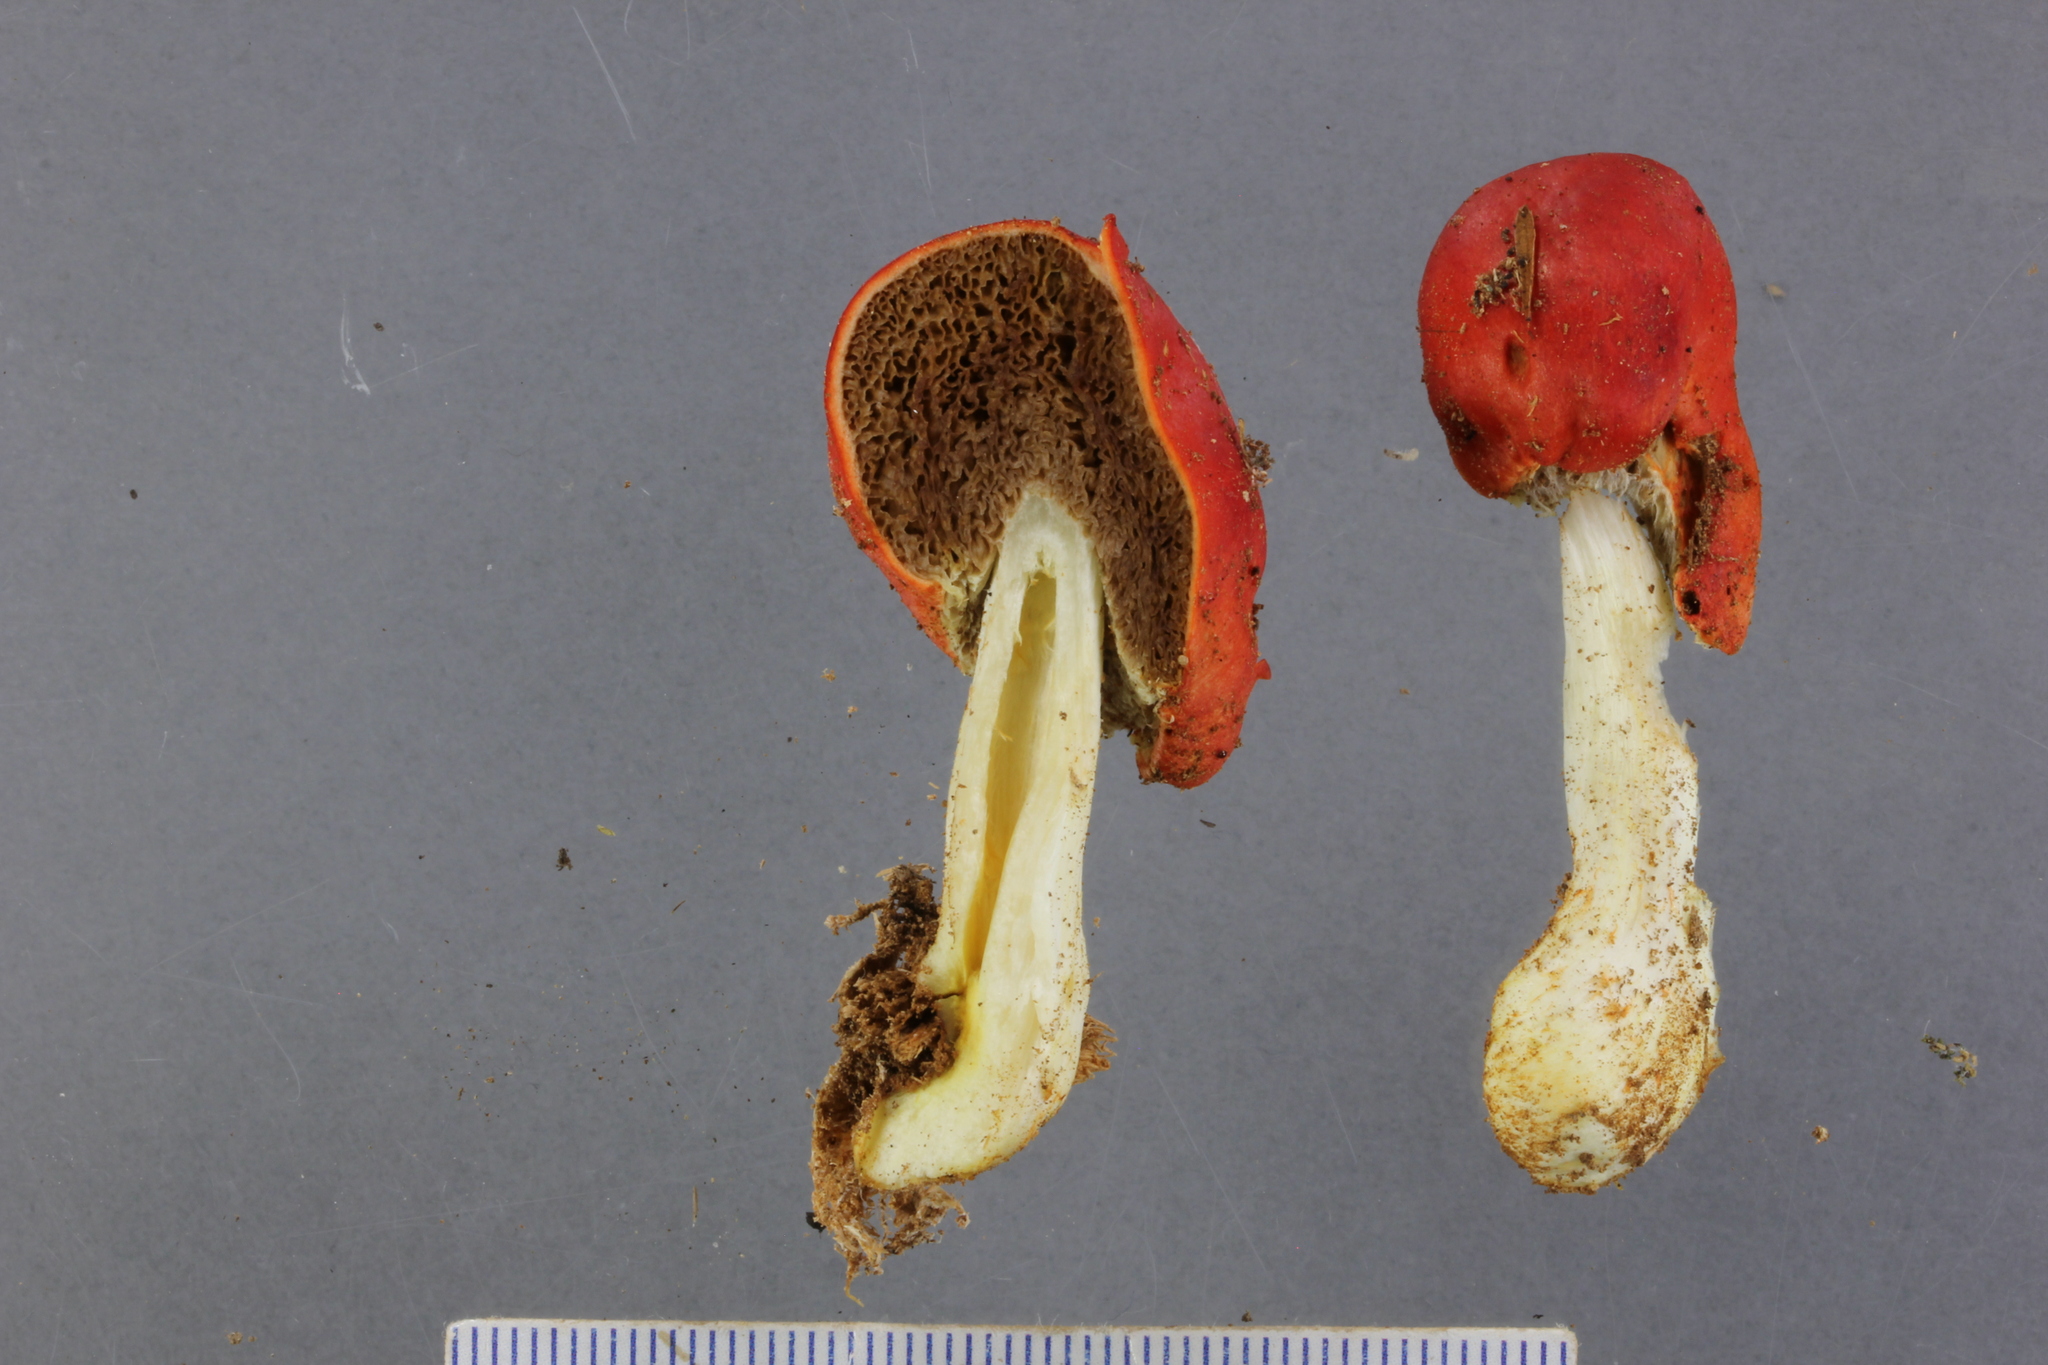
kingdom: Fungi
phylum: Basidiomycota
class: Agaricomycetes
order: Agaricales
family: Strophariaceae
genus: Leratiomyces
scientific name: Leratiomyces erythrocephalus
